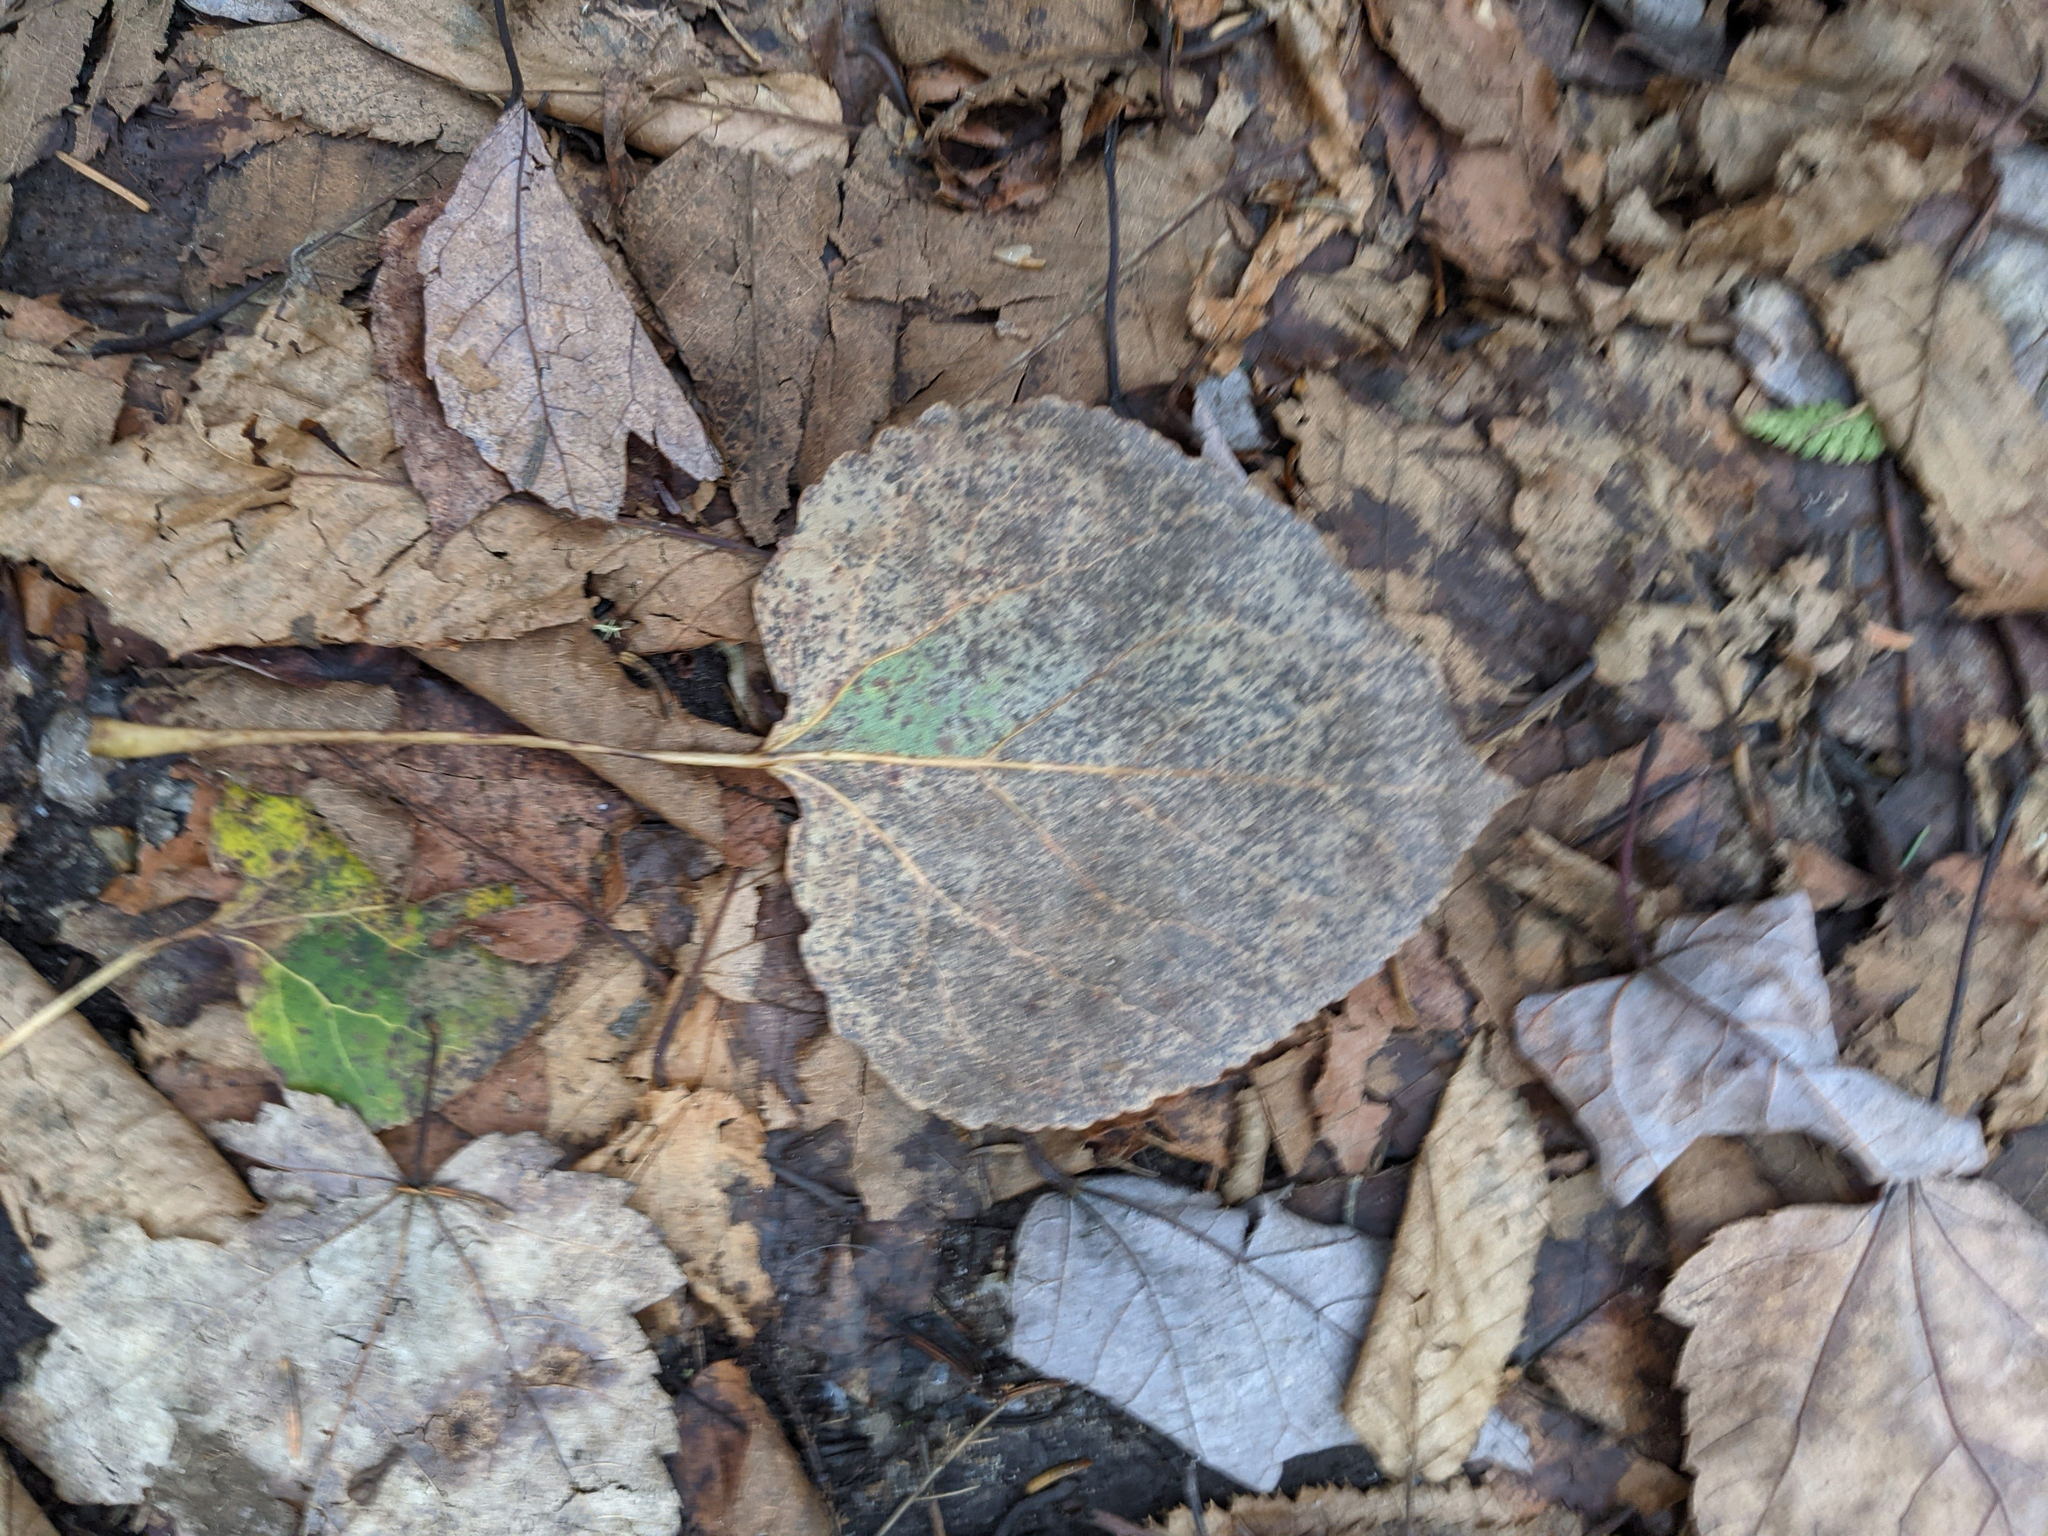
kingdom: Plantae
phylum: Tracheophyta
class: Magnoliopsida
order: Malpighiales
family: Salicaceae
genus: Populus
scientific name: Populus tremuloides
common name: Quaking aspen
